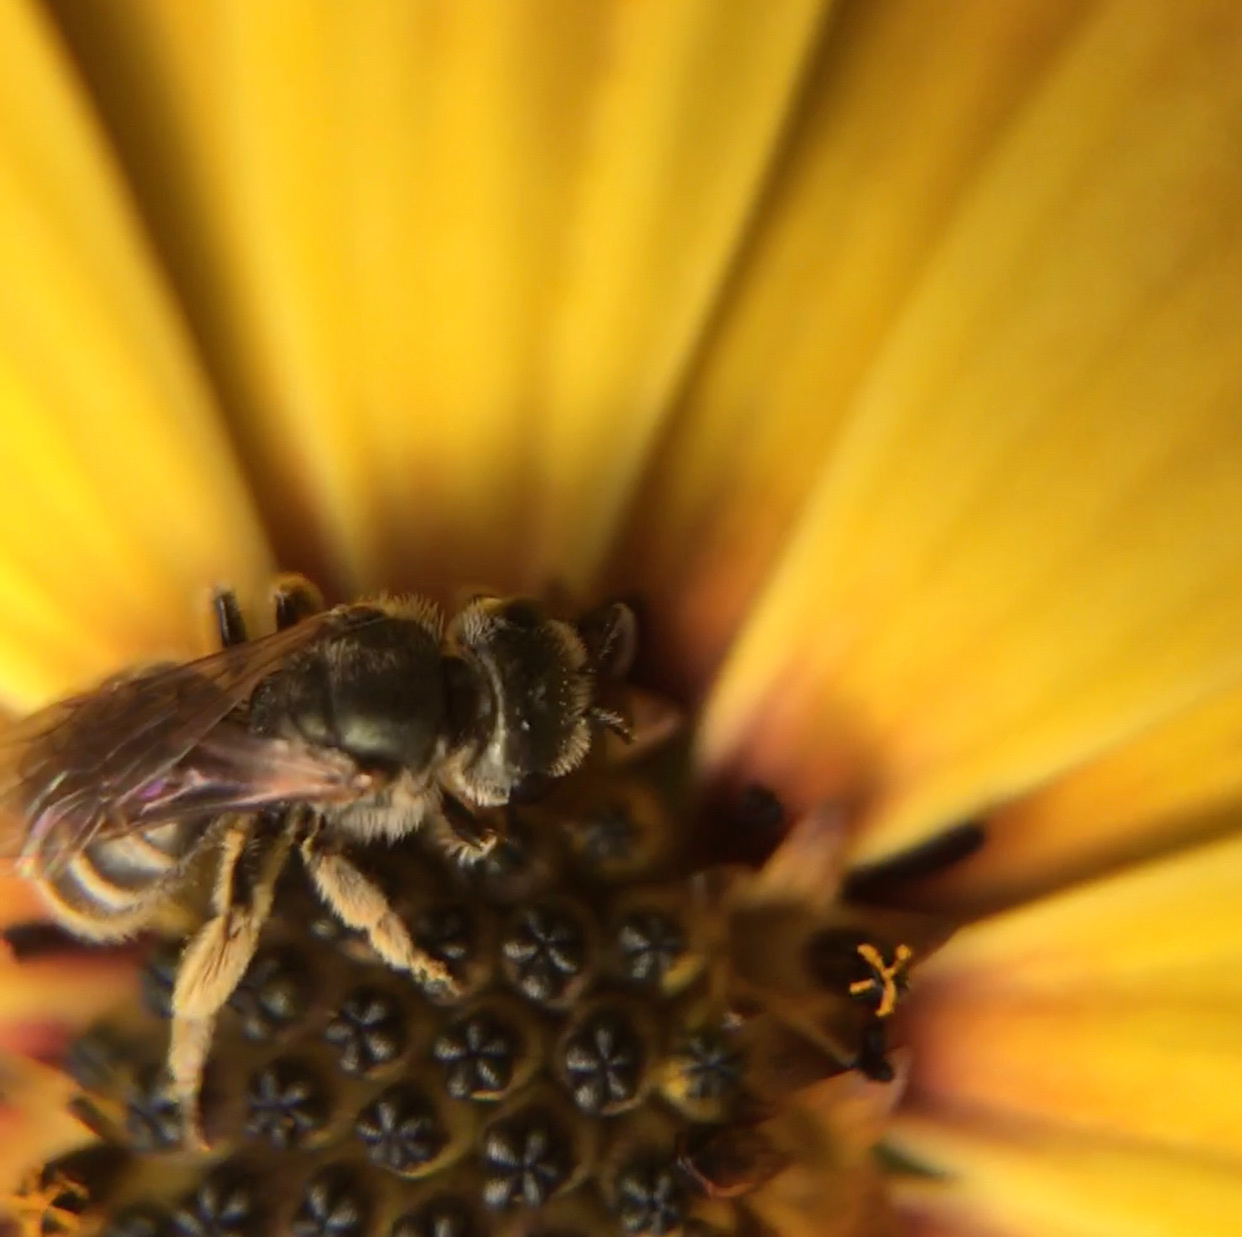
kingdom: Animalia
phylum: Arthropoda
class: Insecta
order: Hymenoptera
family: Halictidae
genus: Halictus
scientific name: Halictus tripartitus
